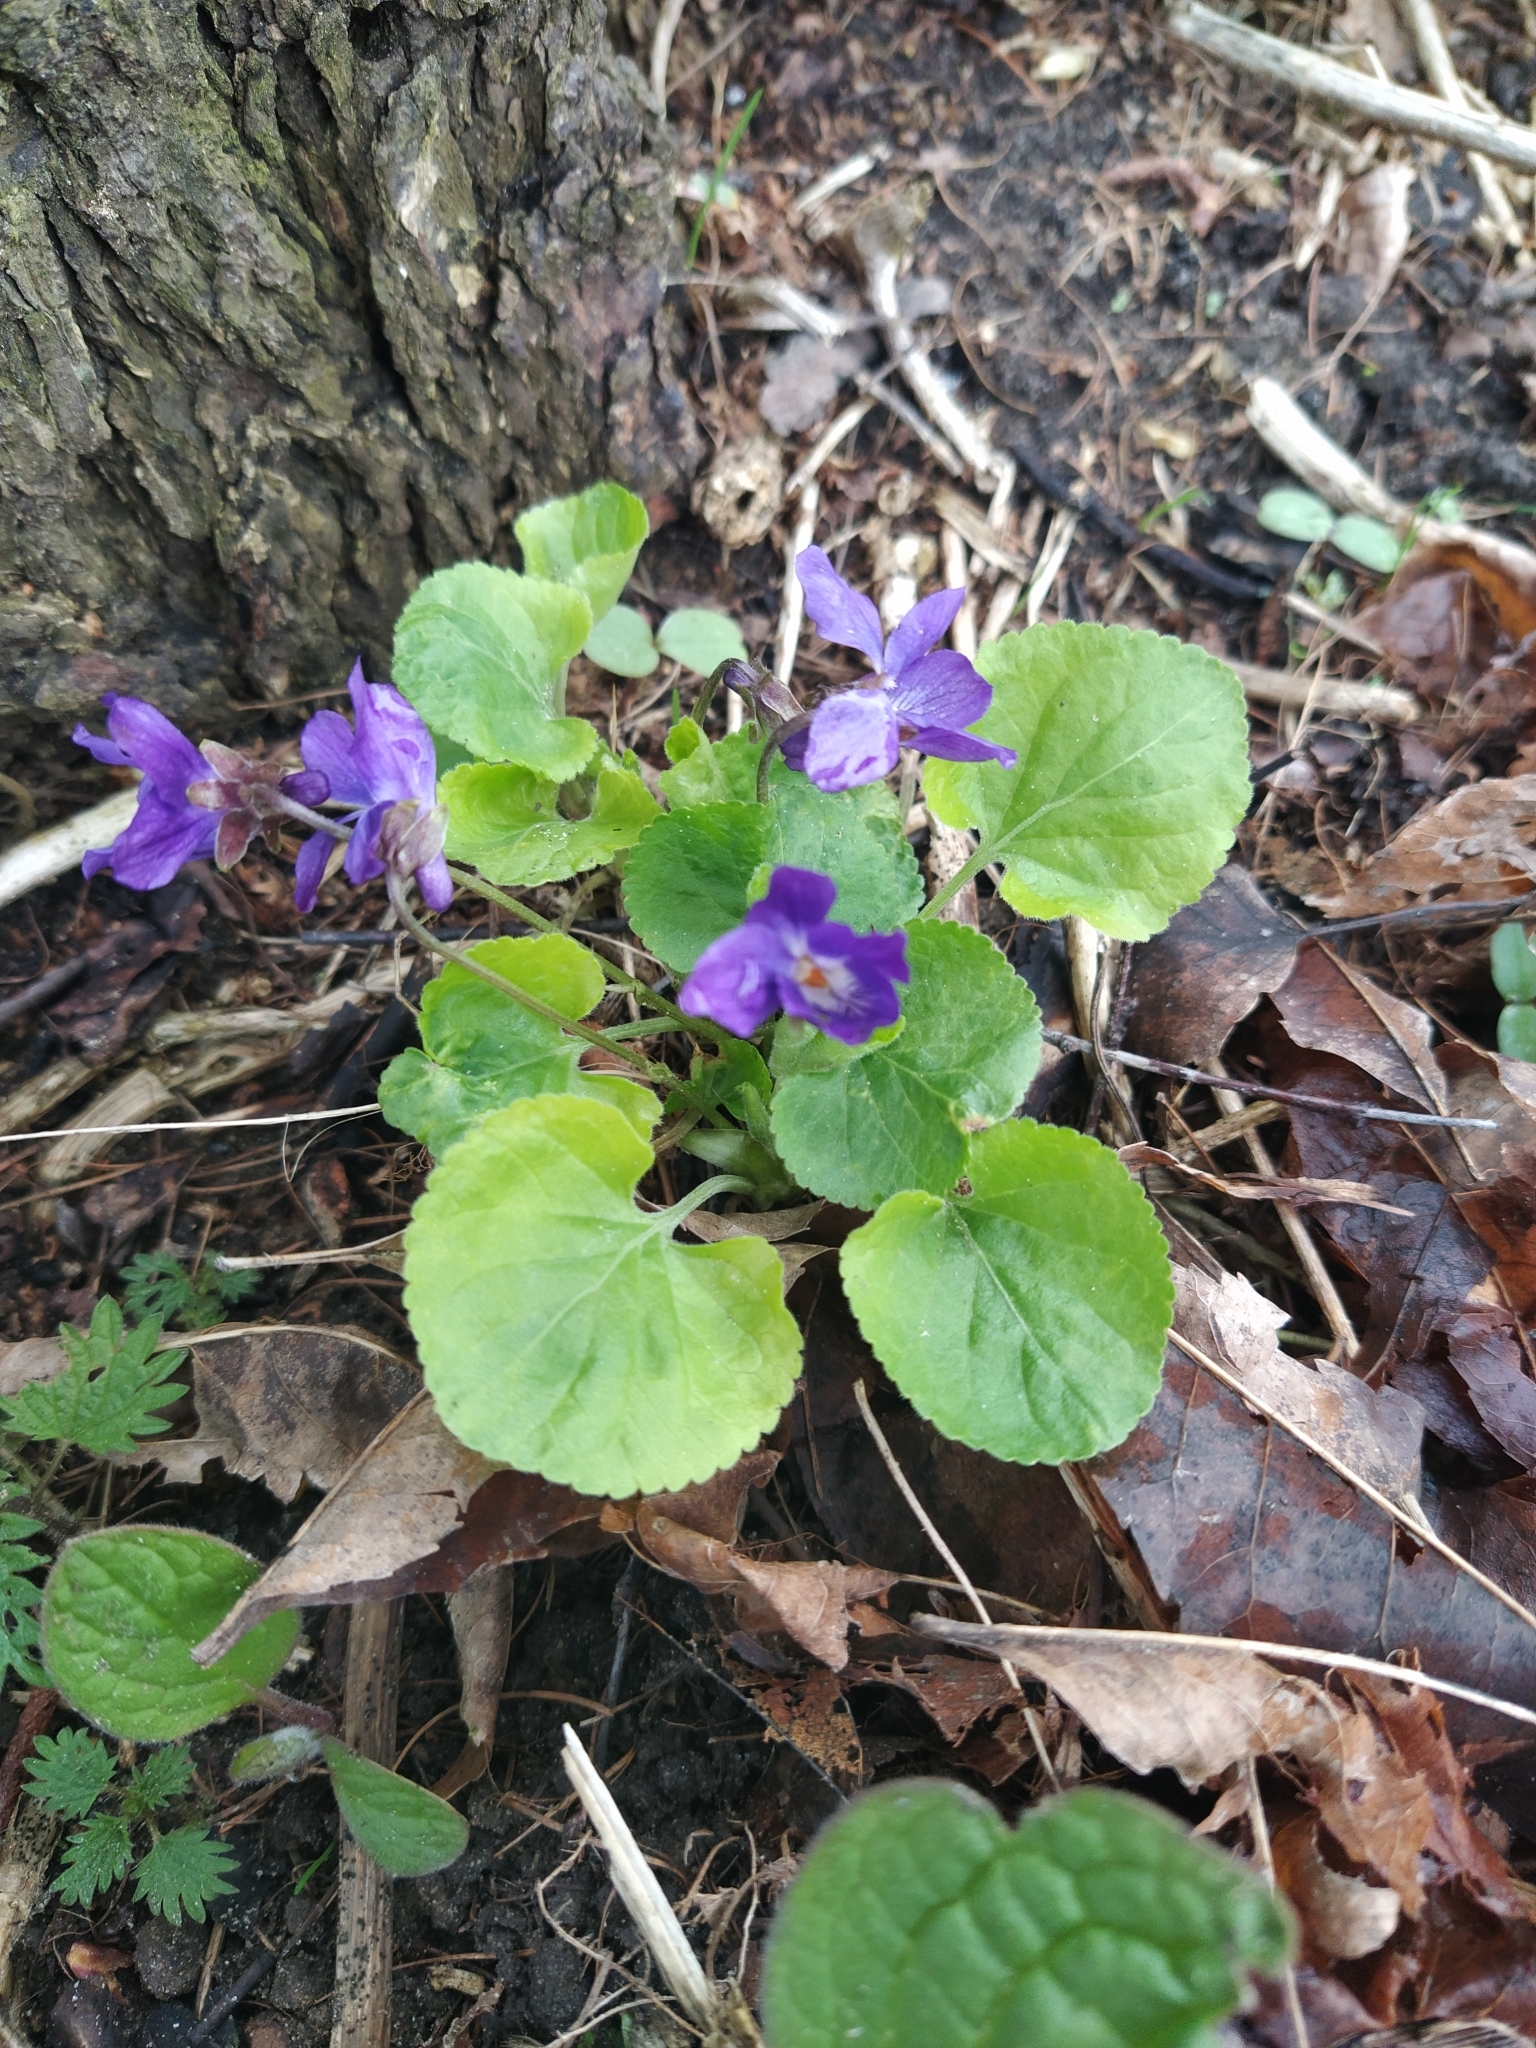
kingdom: Plantae
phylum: Tracheophyta
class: Magnoliopsida
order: Malpighiales
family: Violaceae
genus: Viola
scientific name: Viola odorata
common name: Sweet violet
